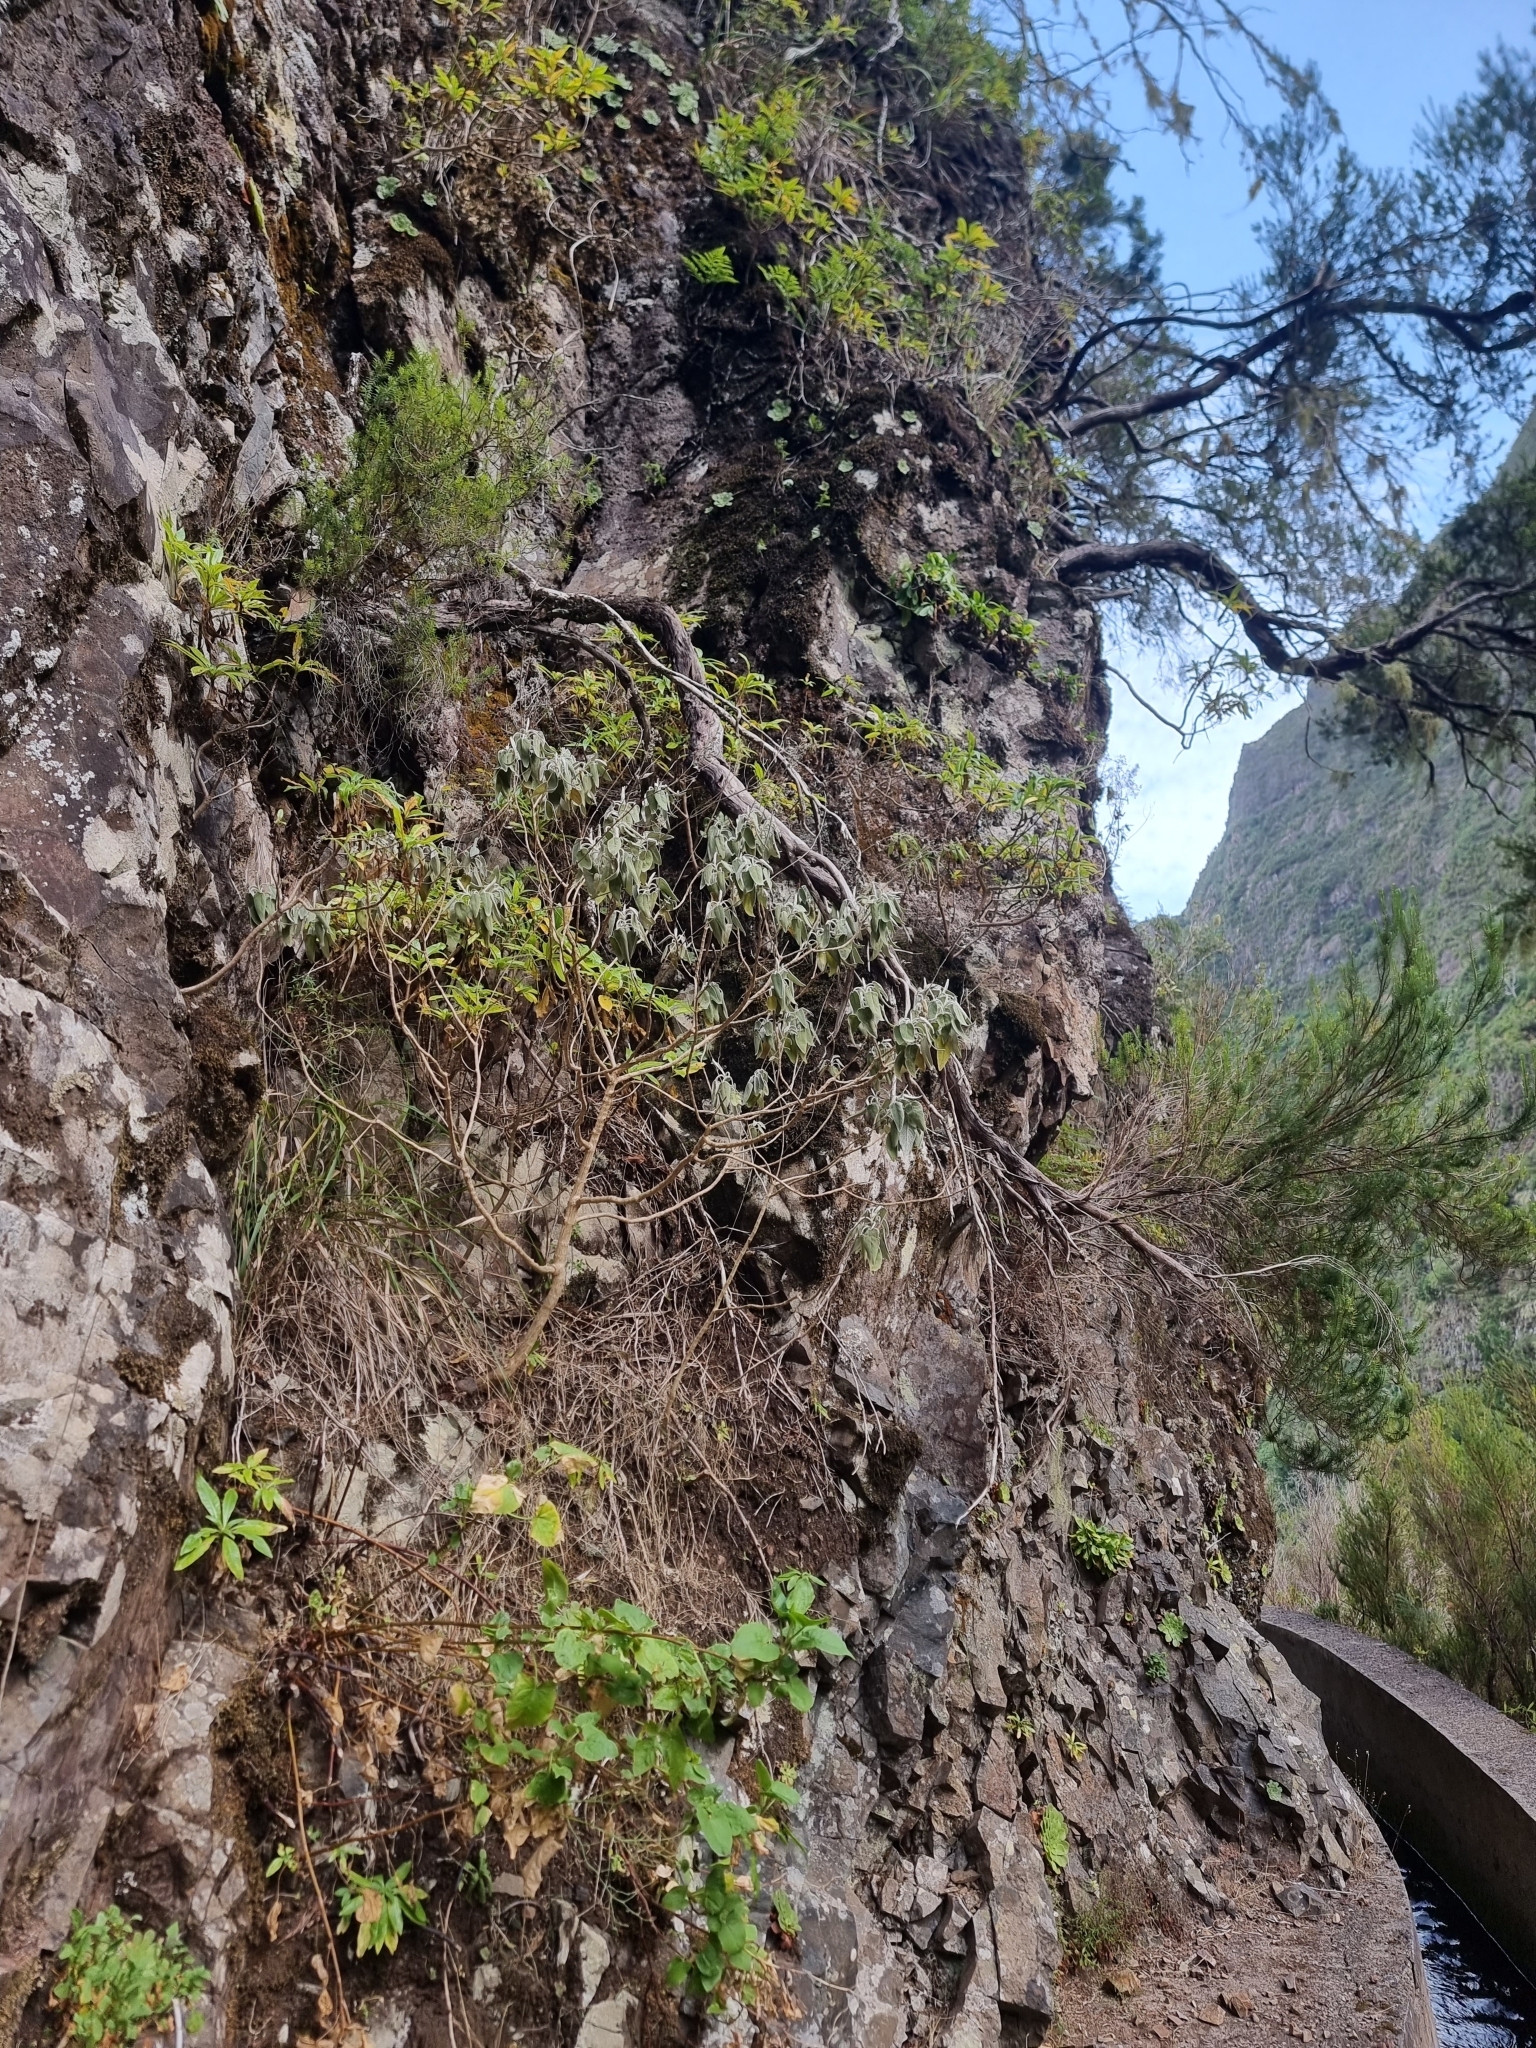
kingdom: Plantae
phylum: Tracheophyta
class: Magnoliopsida
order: Lamiales
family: Lamiaceae
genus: Sideritis
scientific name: Sideritis candicans
